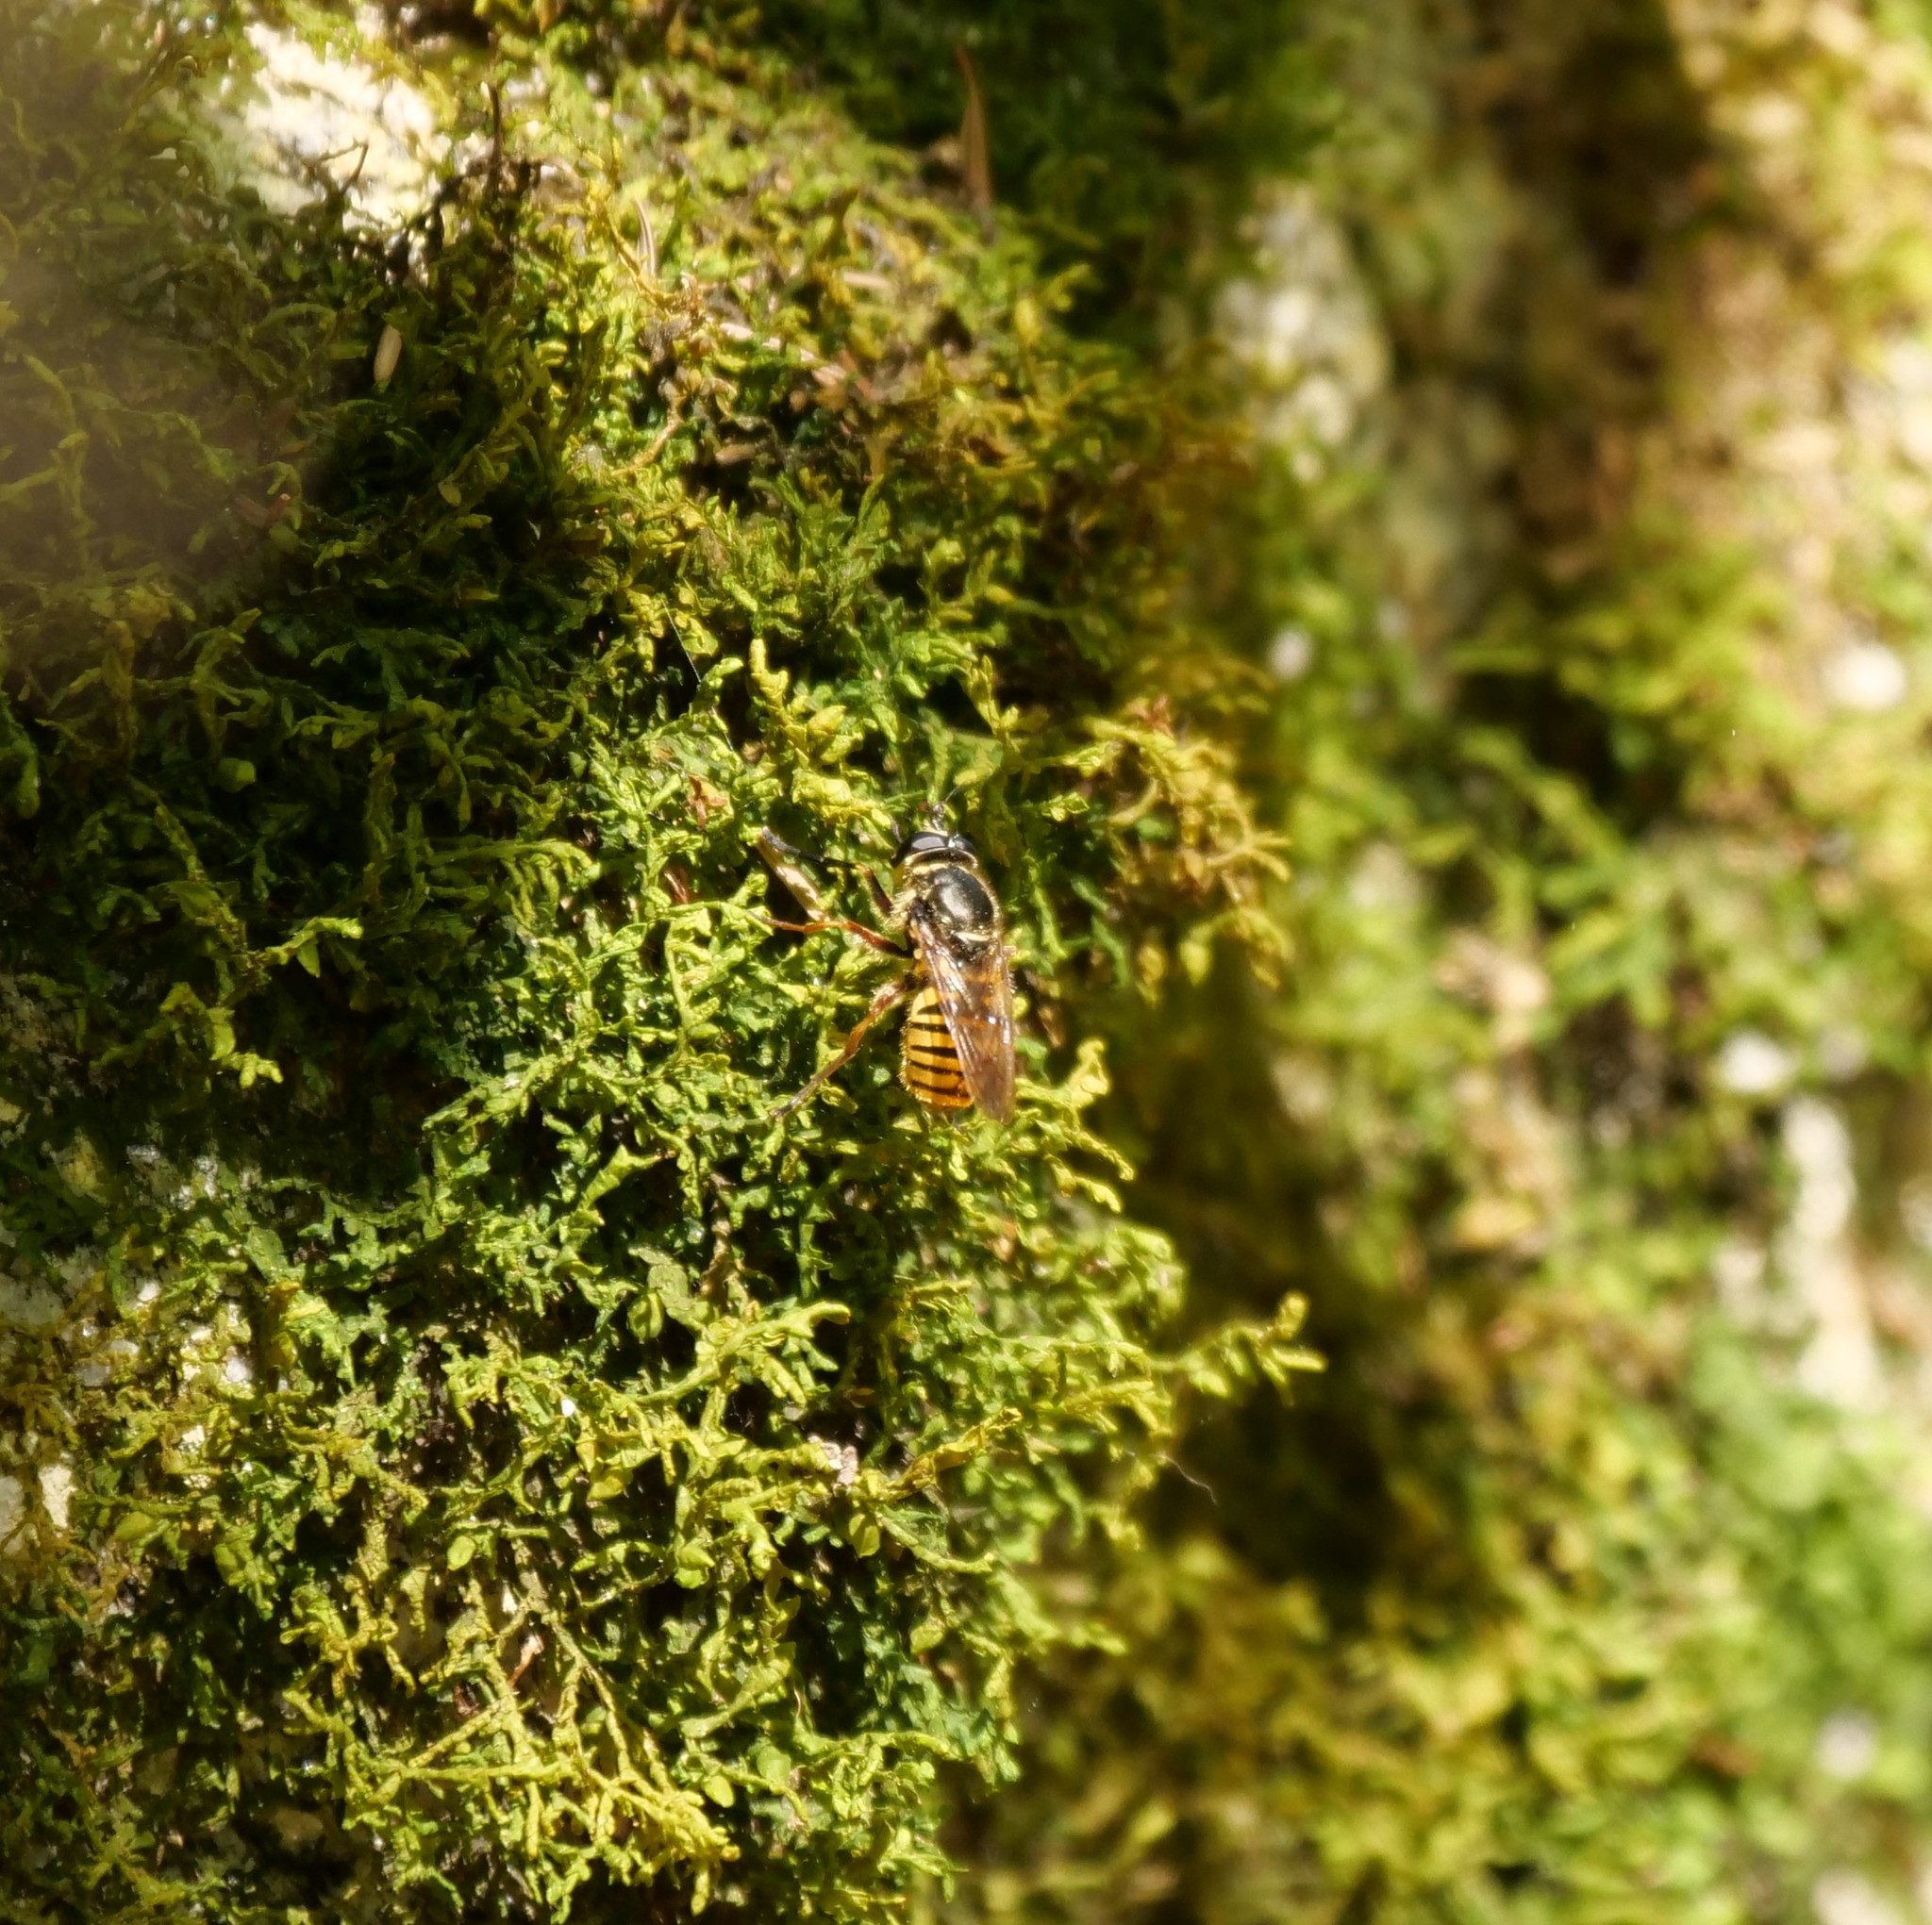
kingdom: Animalia
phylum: Arthropoda
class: Insecta
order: Diptera
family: Syrphidae
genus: Sphecomyia
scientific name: Sphecomyia pattonii
